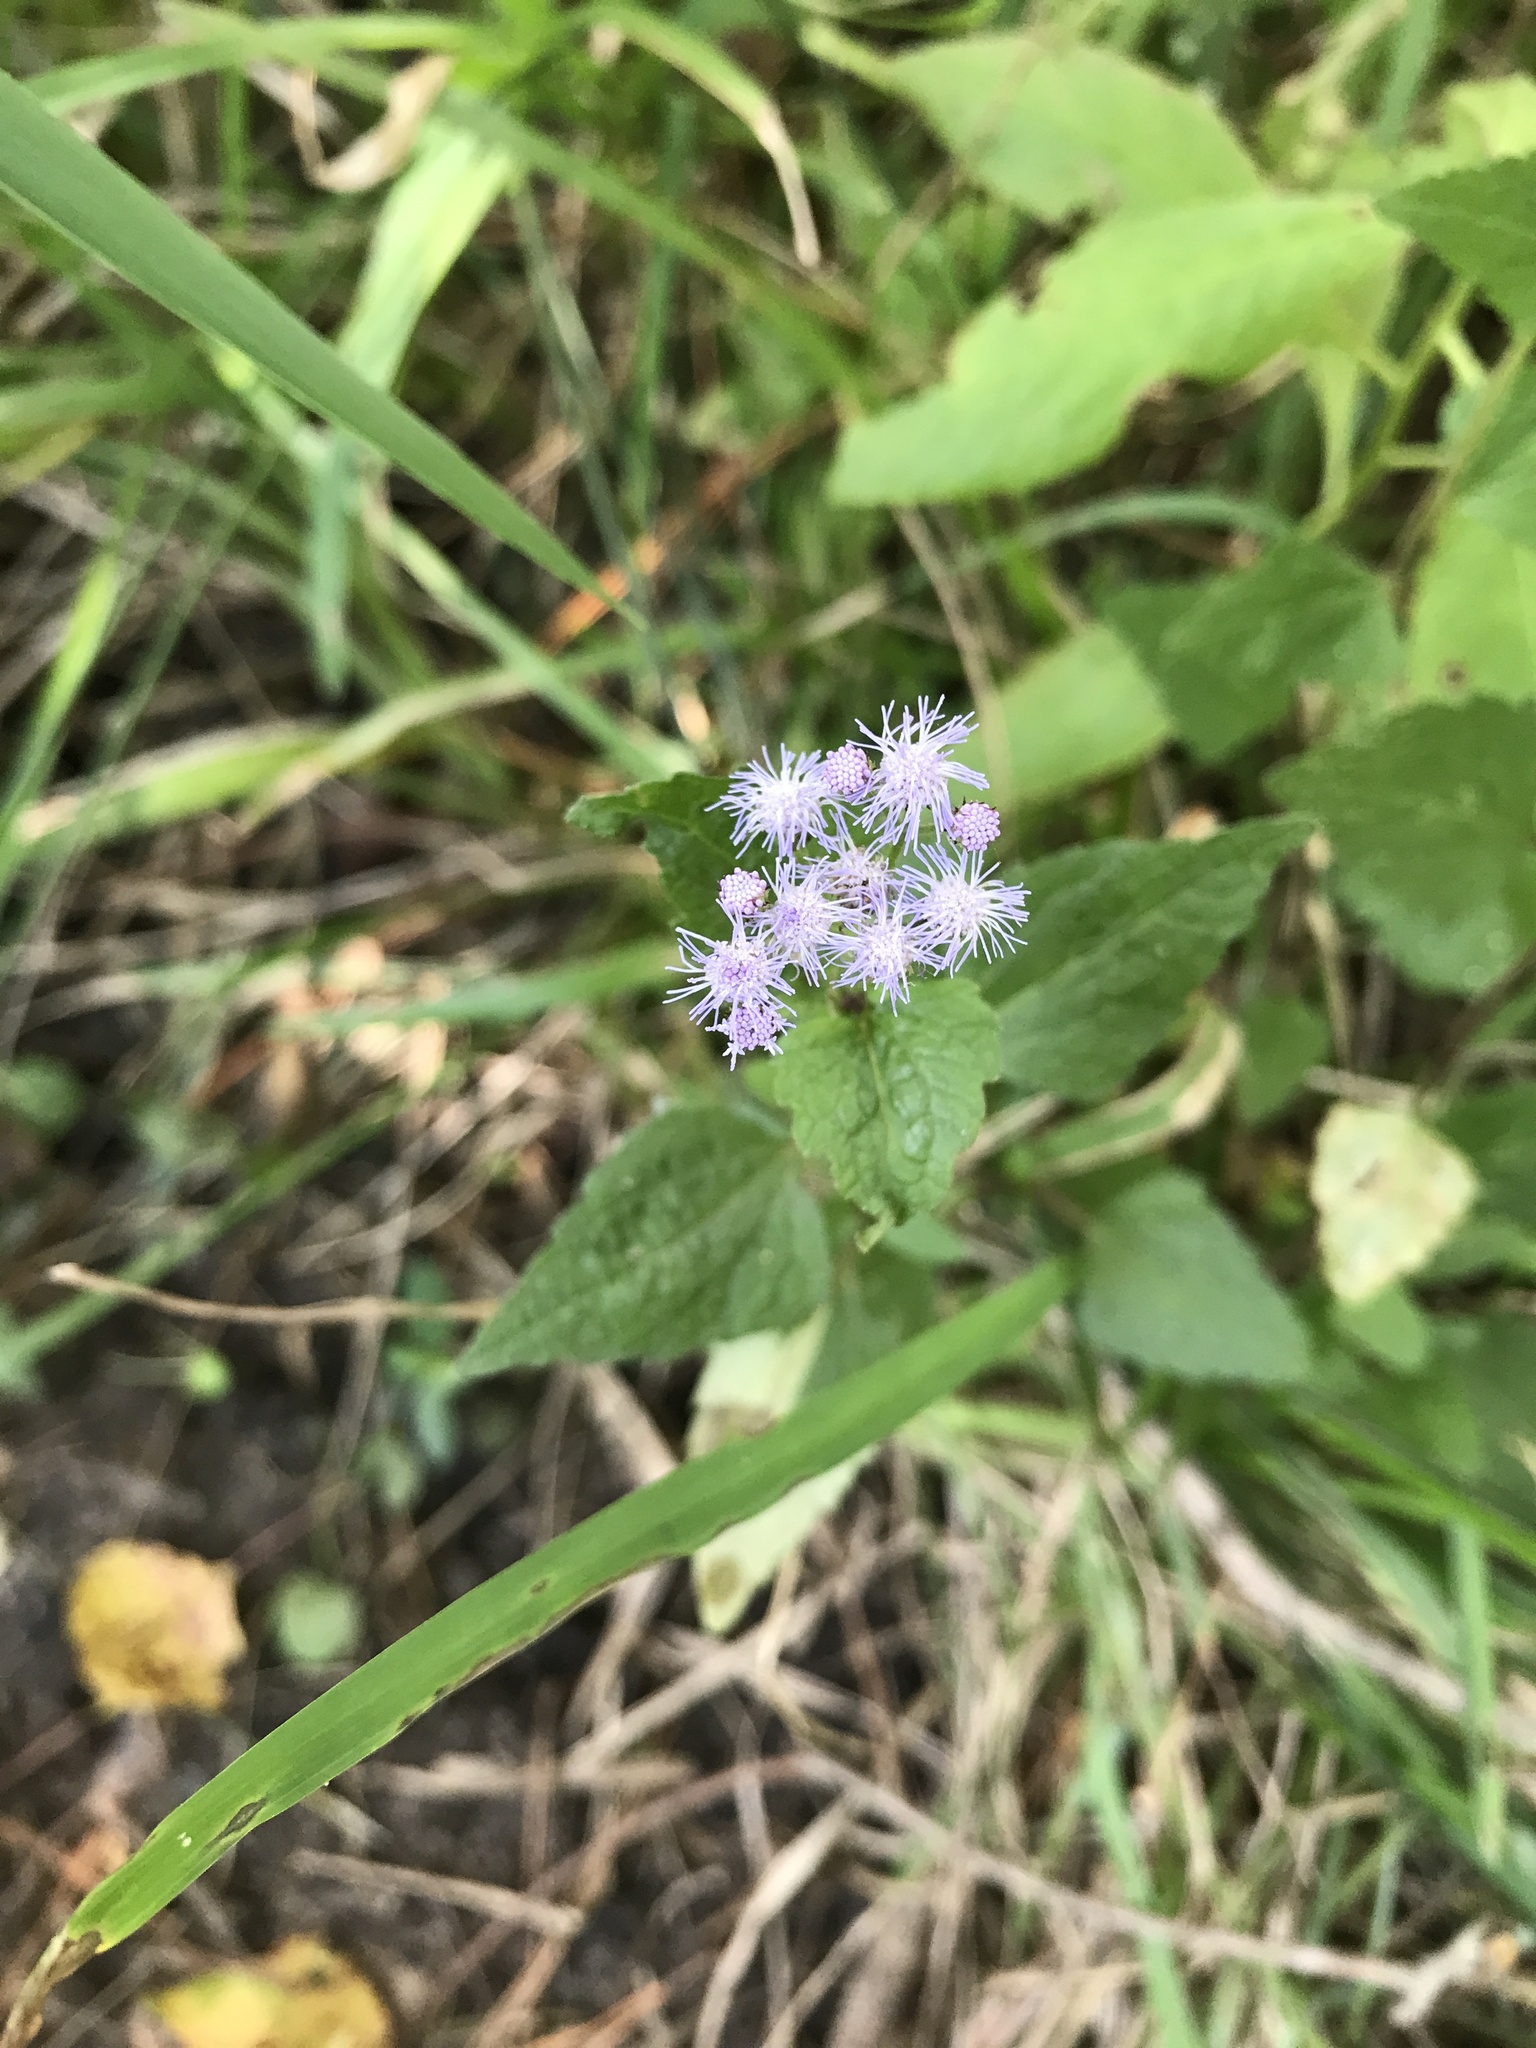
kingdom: Plantae
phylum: Tracheophyta
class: Magnoliopsida
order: Asterales
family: Asteraceae
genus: Conoclinium
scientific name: Conoclinium coelestinum
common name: Blue mistflower
